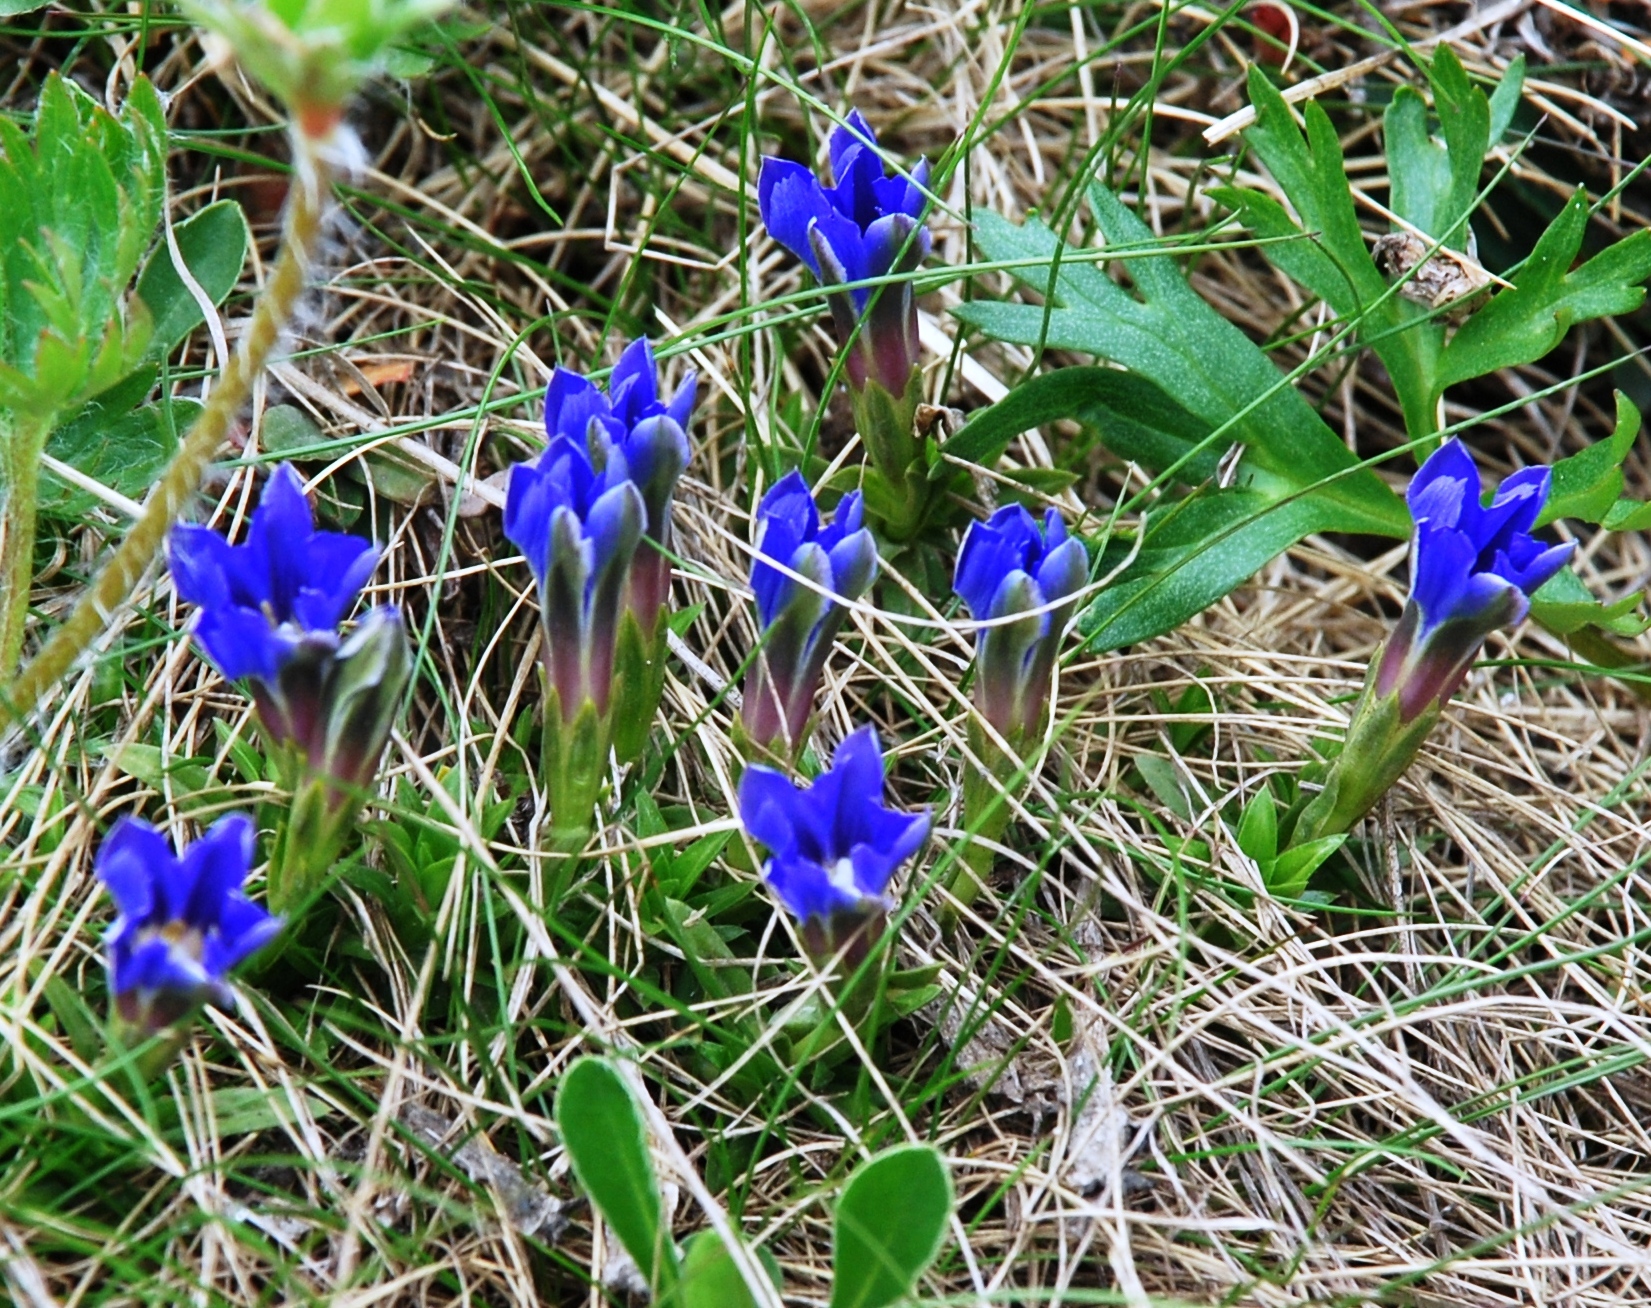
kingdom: Plantae
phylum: Tracheophyta
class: Magnoliopsida
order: Gentianales
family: Gentianaceae
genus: Gentiana
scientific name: Gentiana dshimilensis
